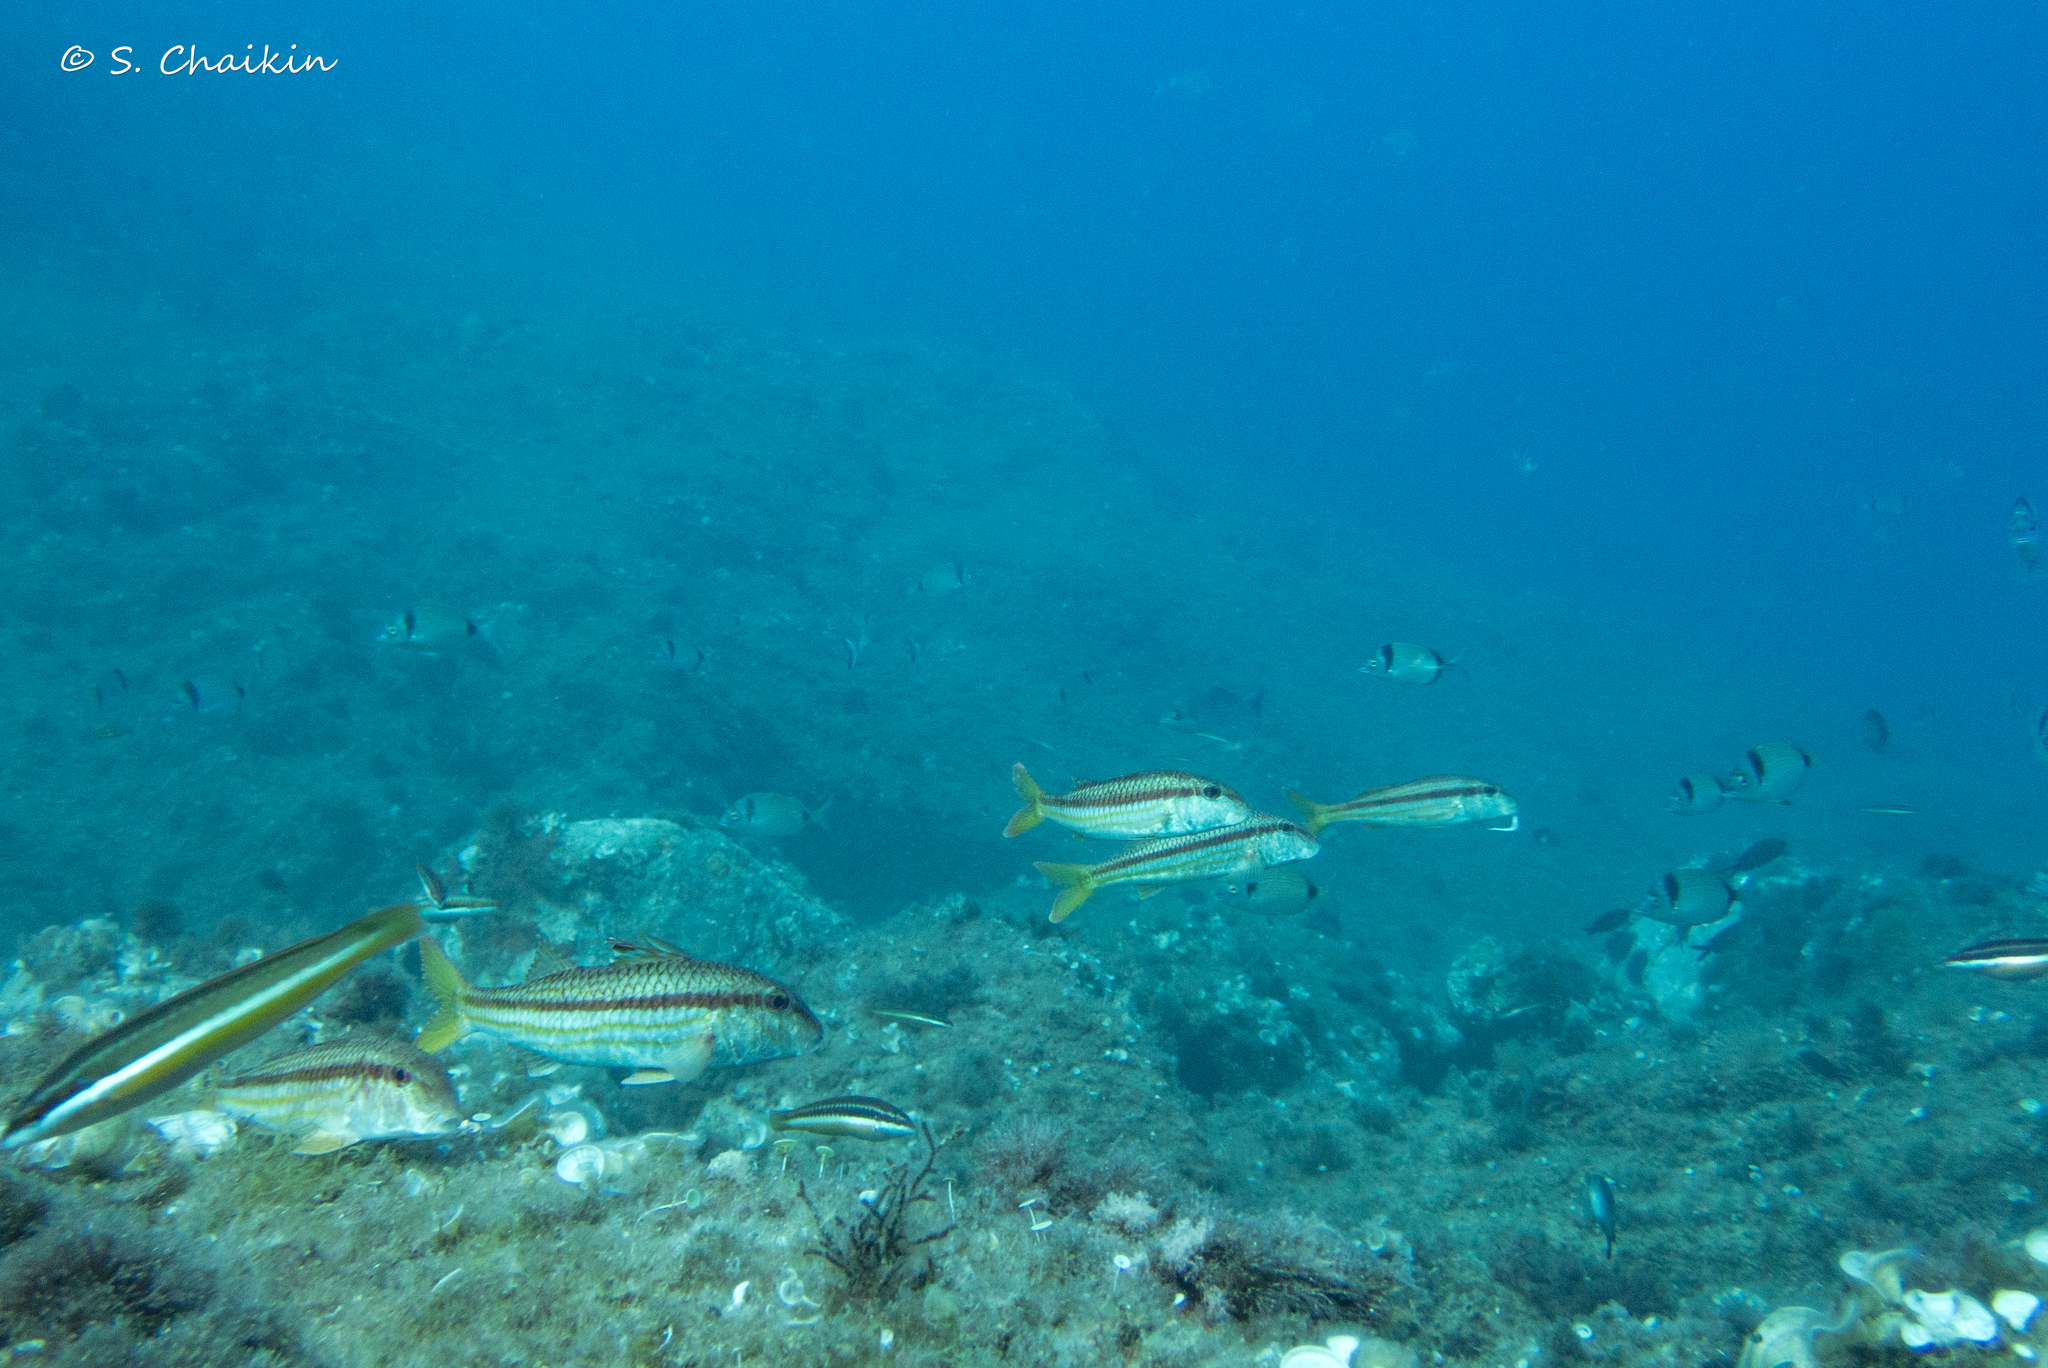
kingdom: Animalia
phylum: Chordata
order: Perciformes
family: Mullidae
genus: Mullus
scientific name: Mullus surmuletus
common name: Red mullet
